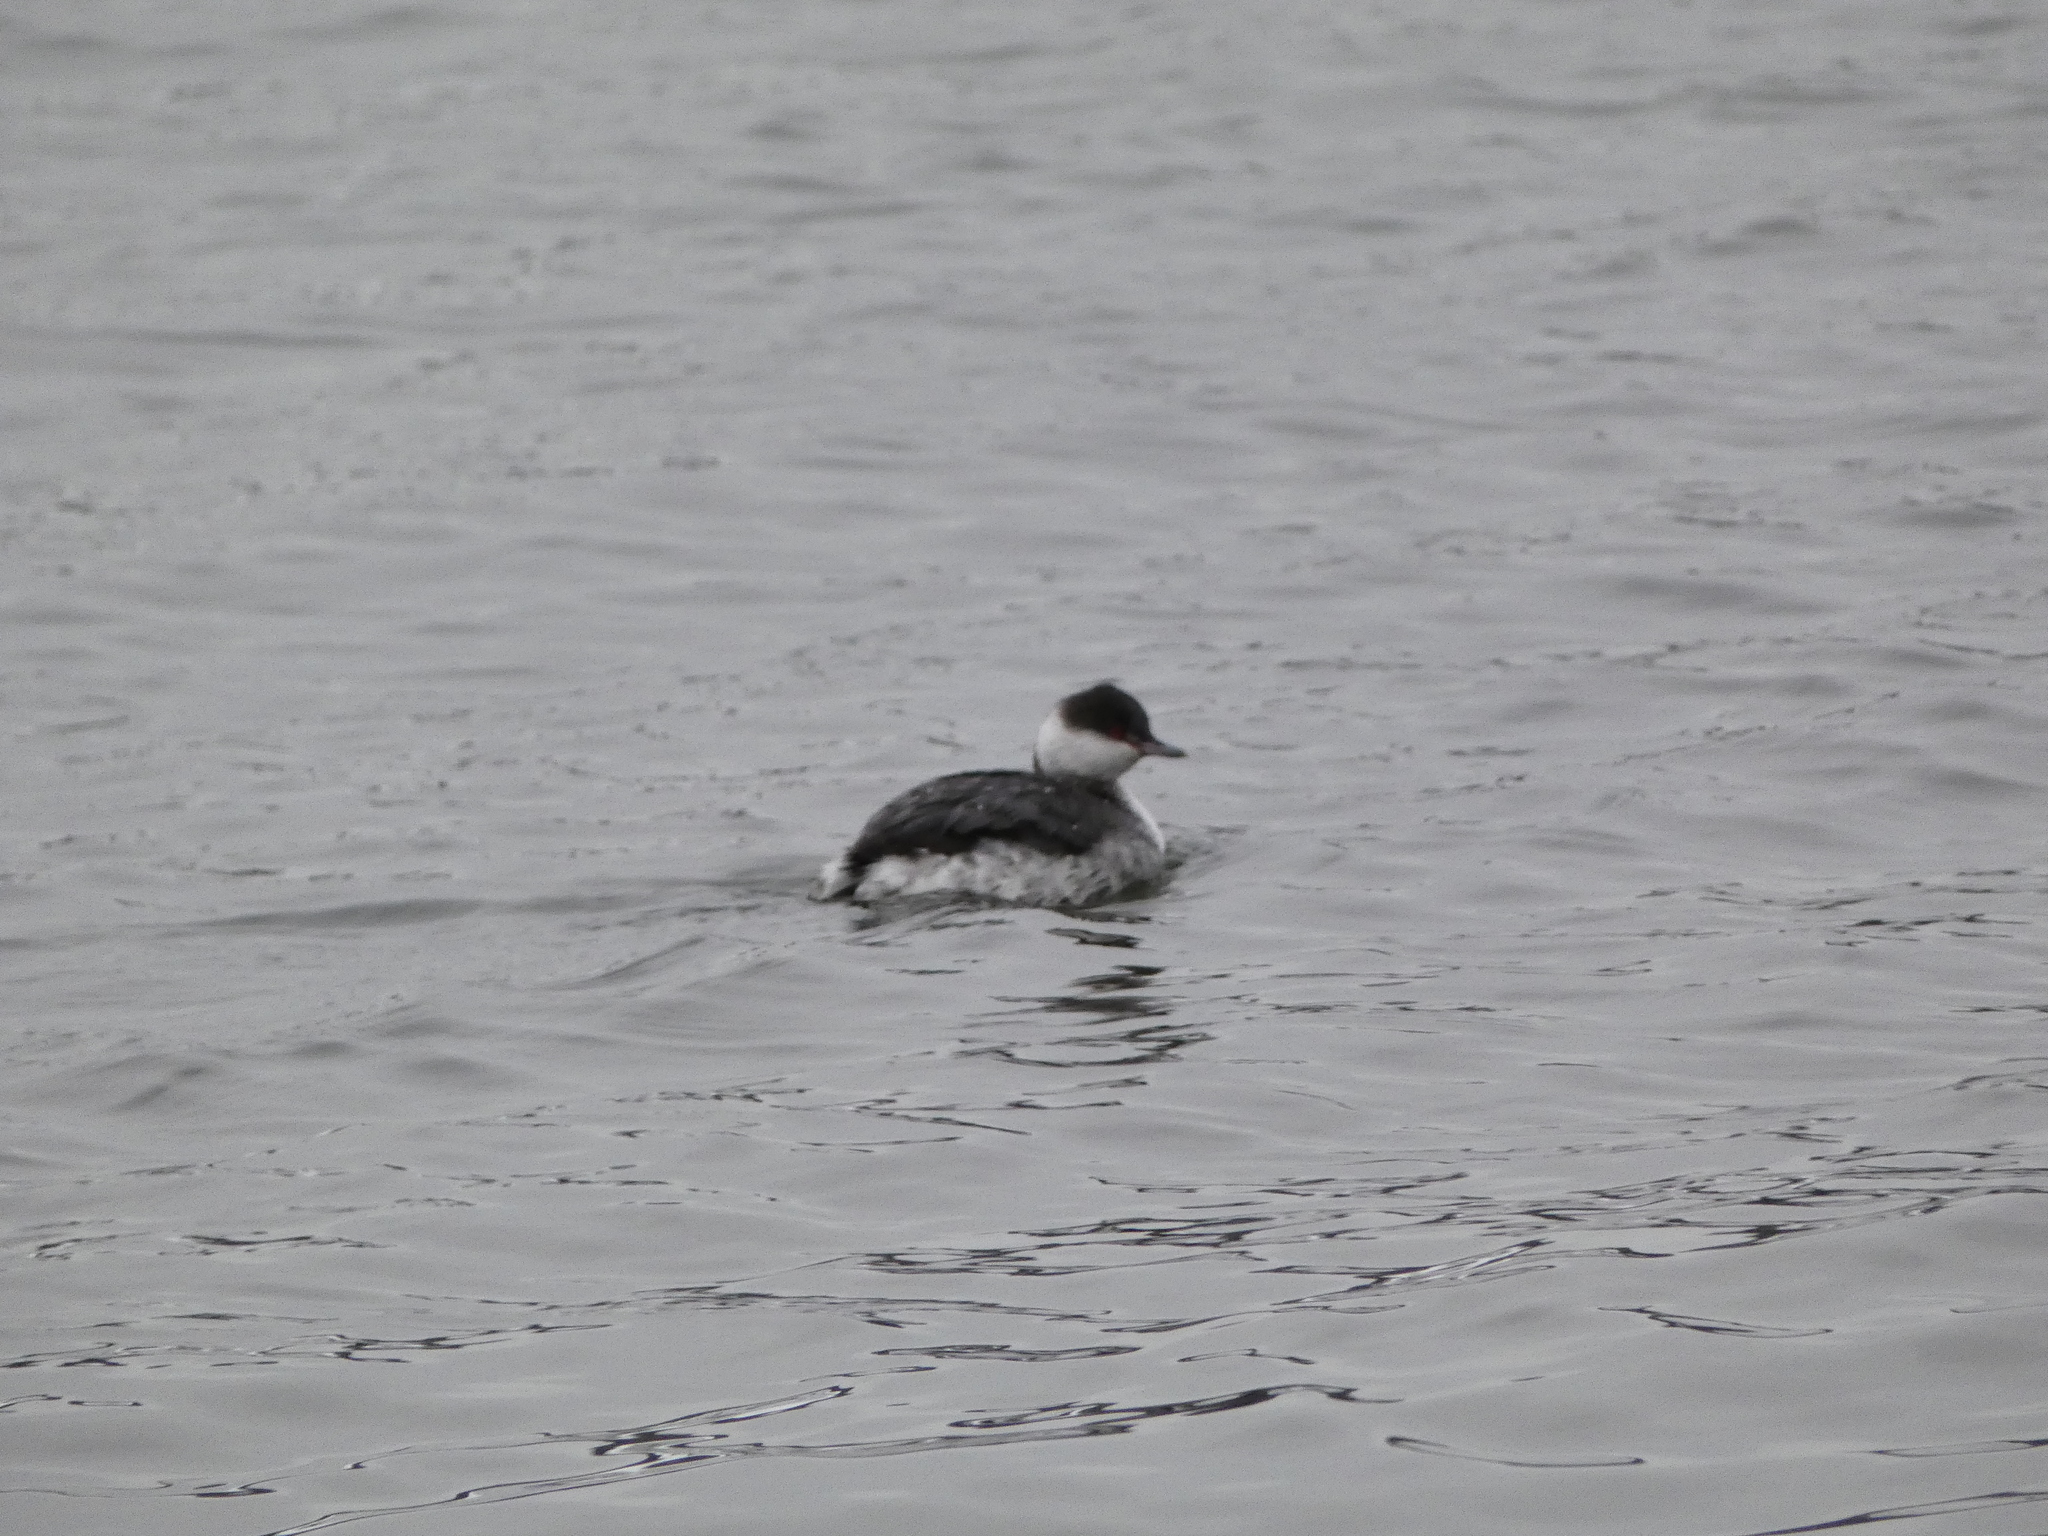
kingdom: Animalia
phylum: Chordata
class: Aves
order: Podicipediformes
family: Podicipedidae
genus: Podiceps
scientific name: Podiceps auritus
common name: Horned grebe
